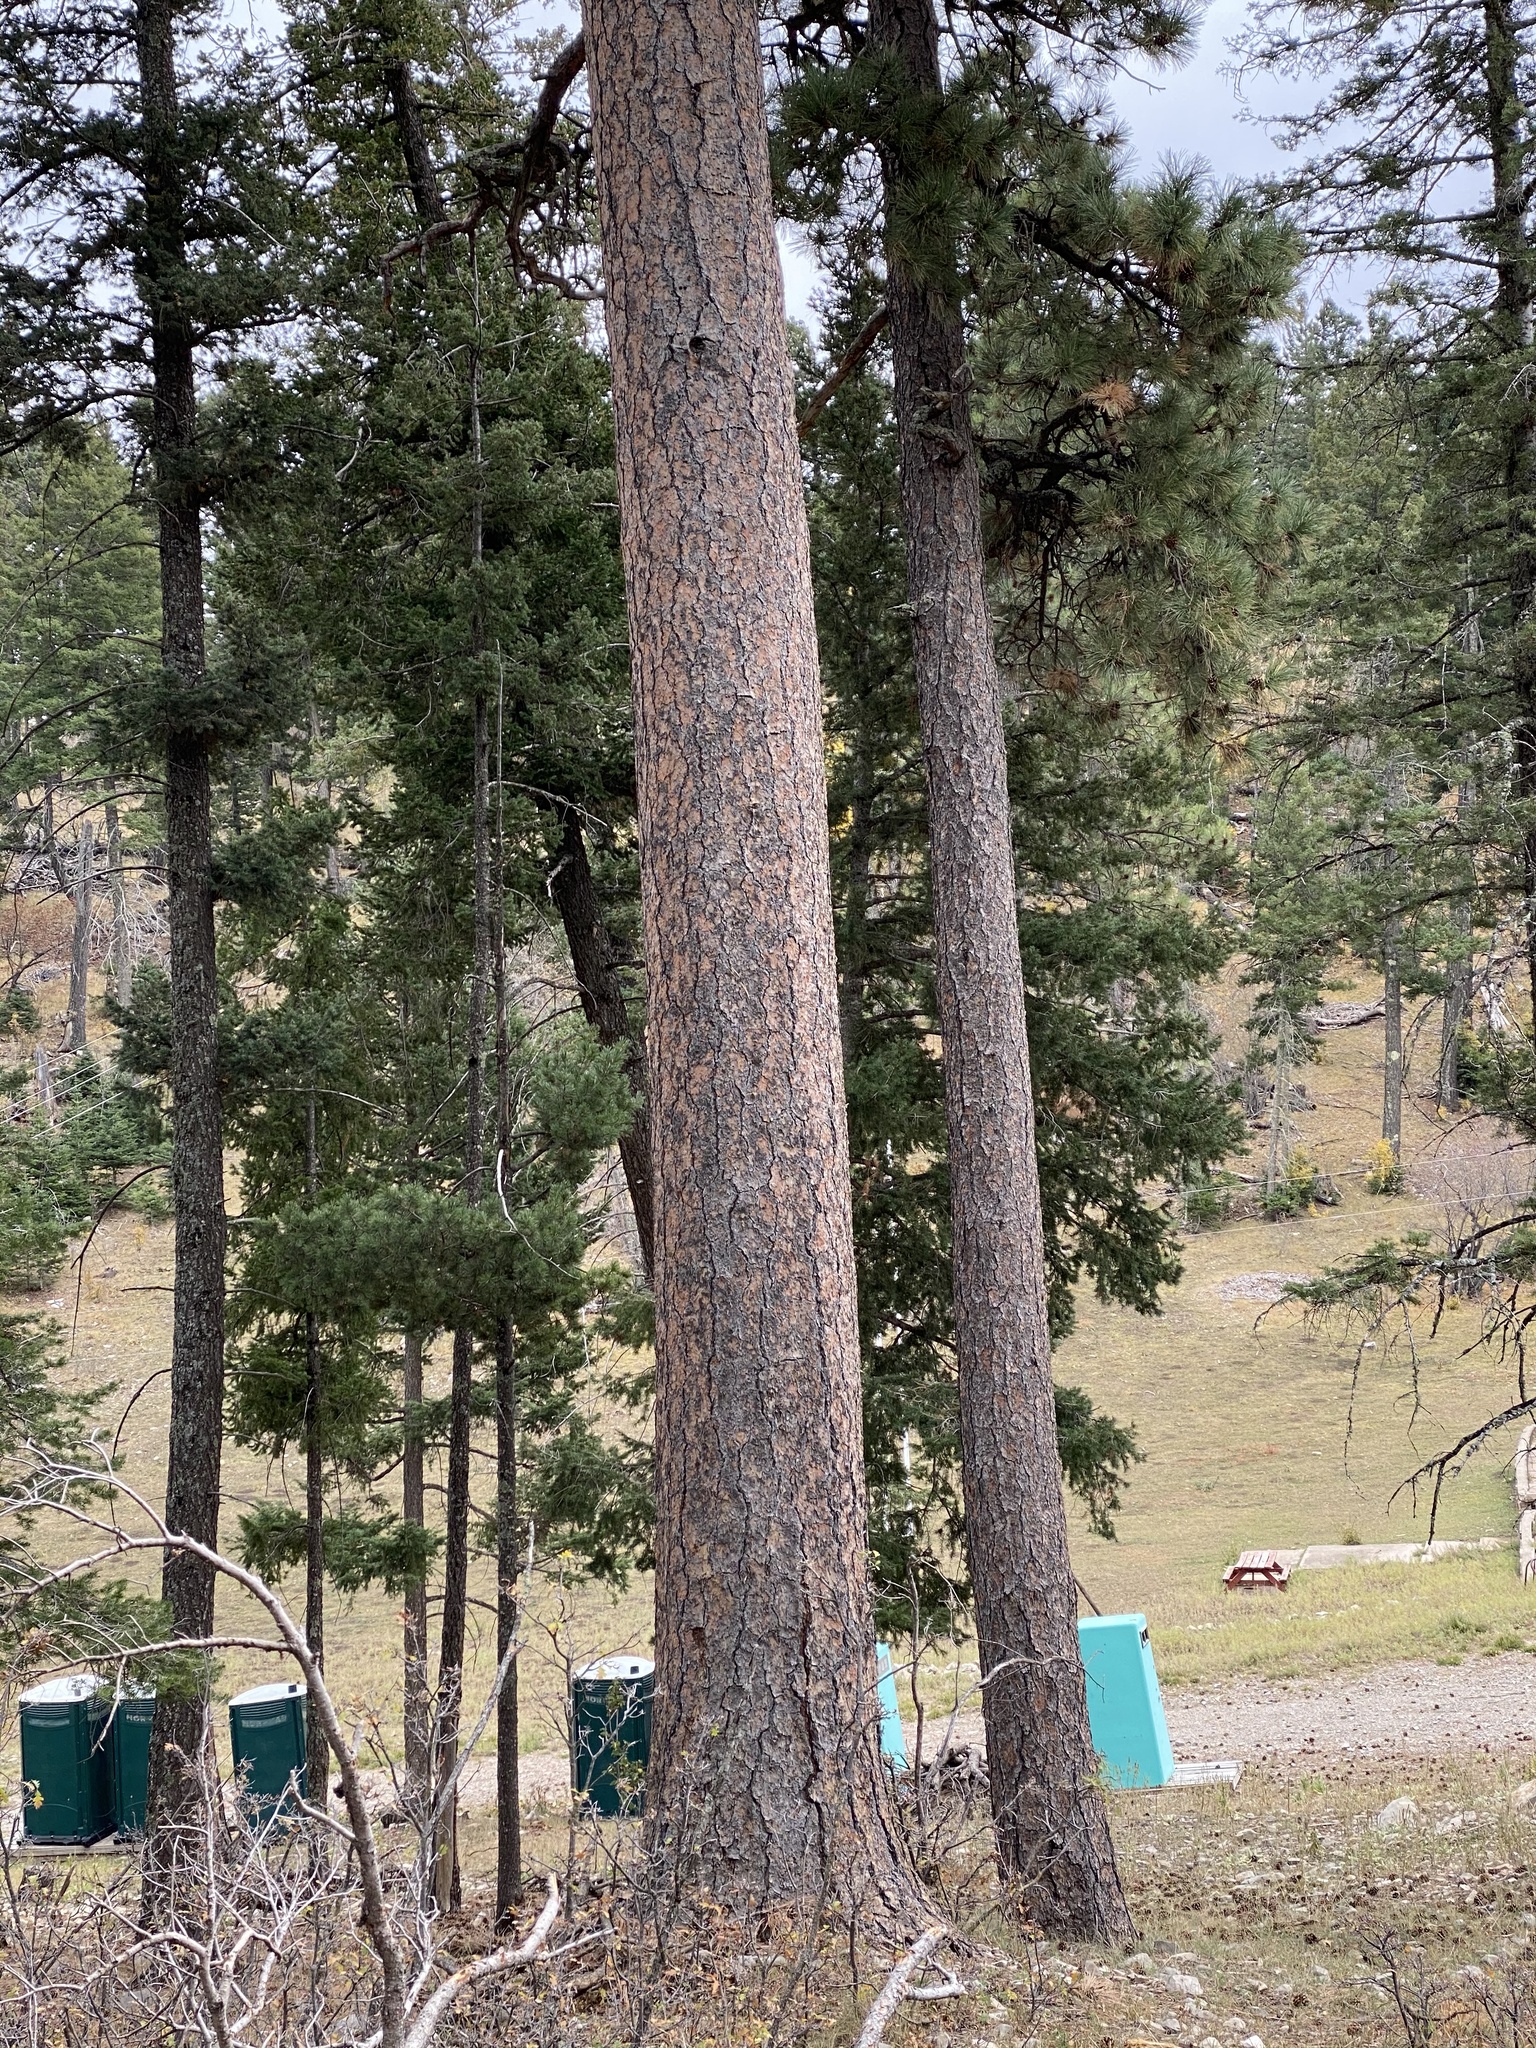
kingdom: Plantae
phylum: Tracheophyta
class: Pinopsida
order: Pinales
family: Pinaceae
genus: Pinus
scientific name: Pinus ponderosa
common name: Western yellow-pine
